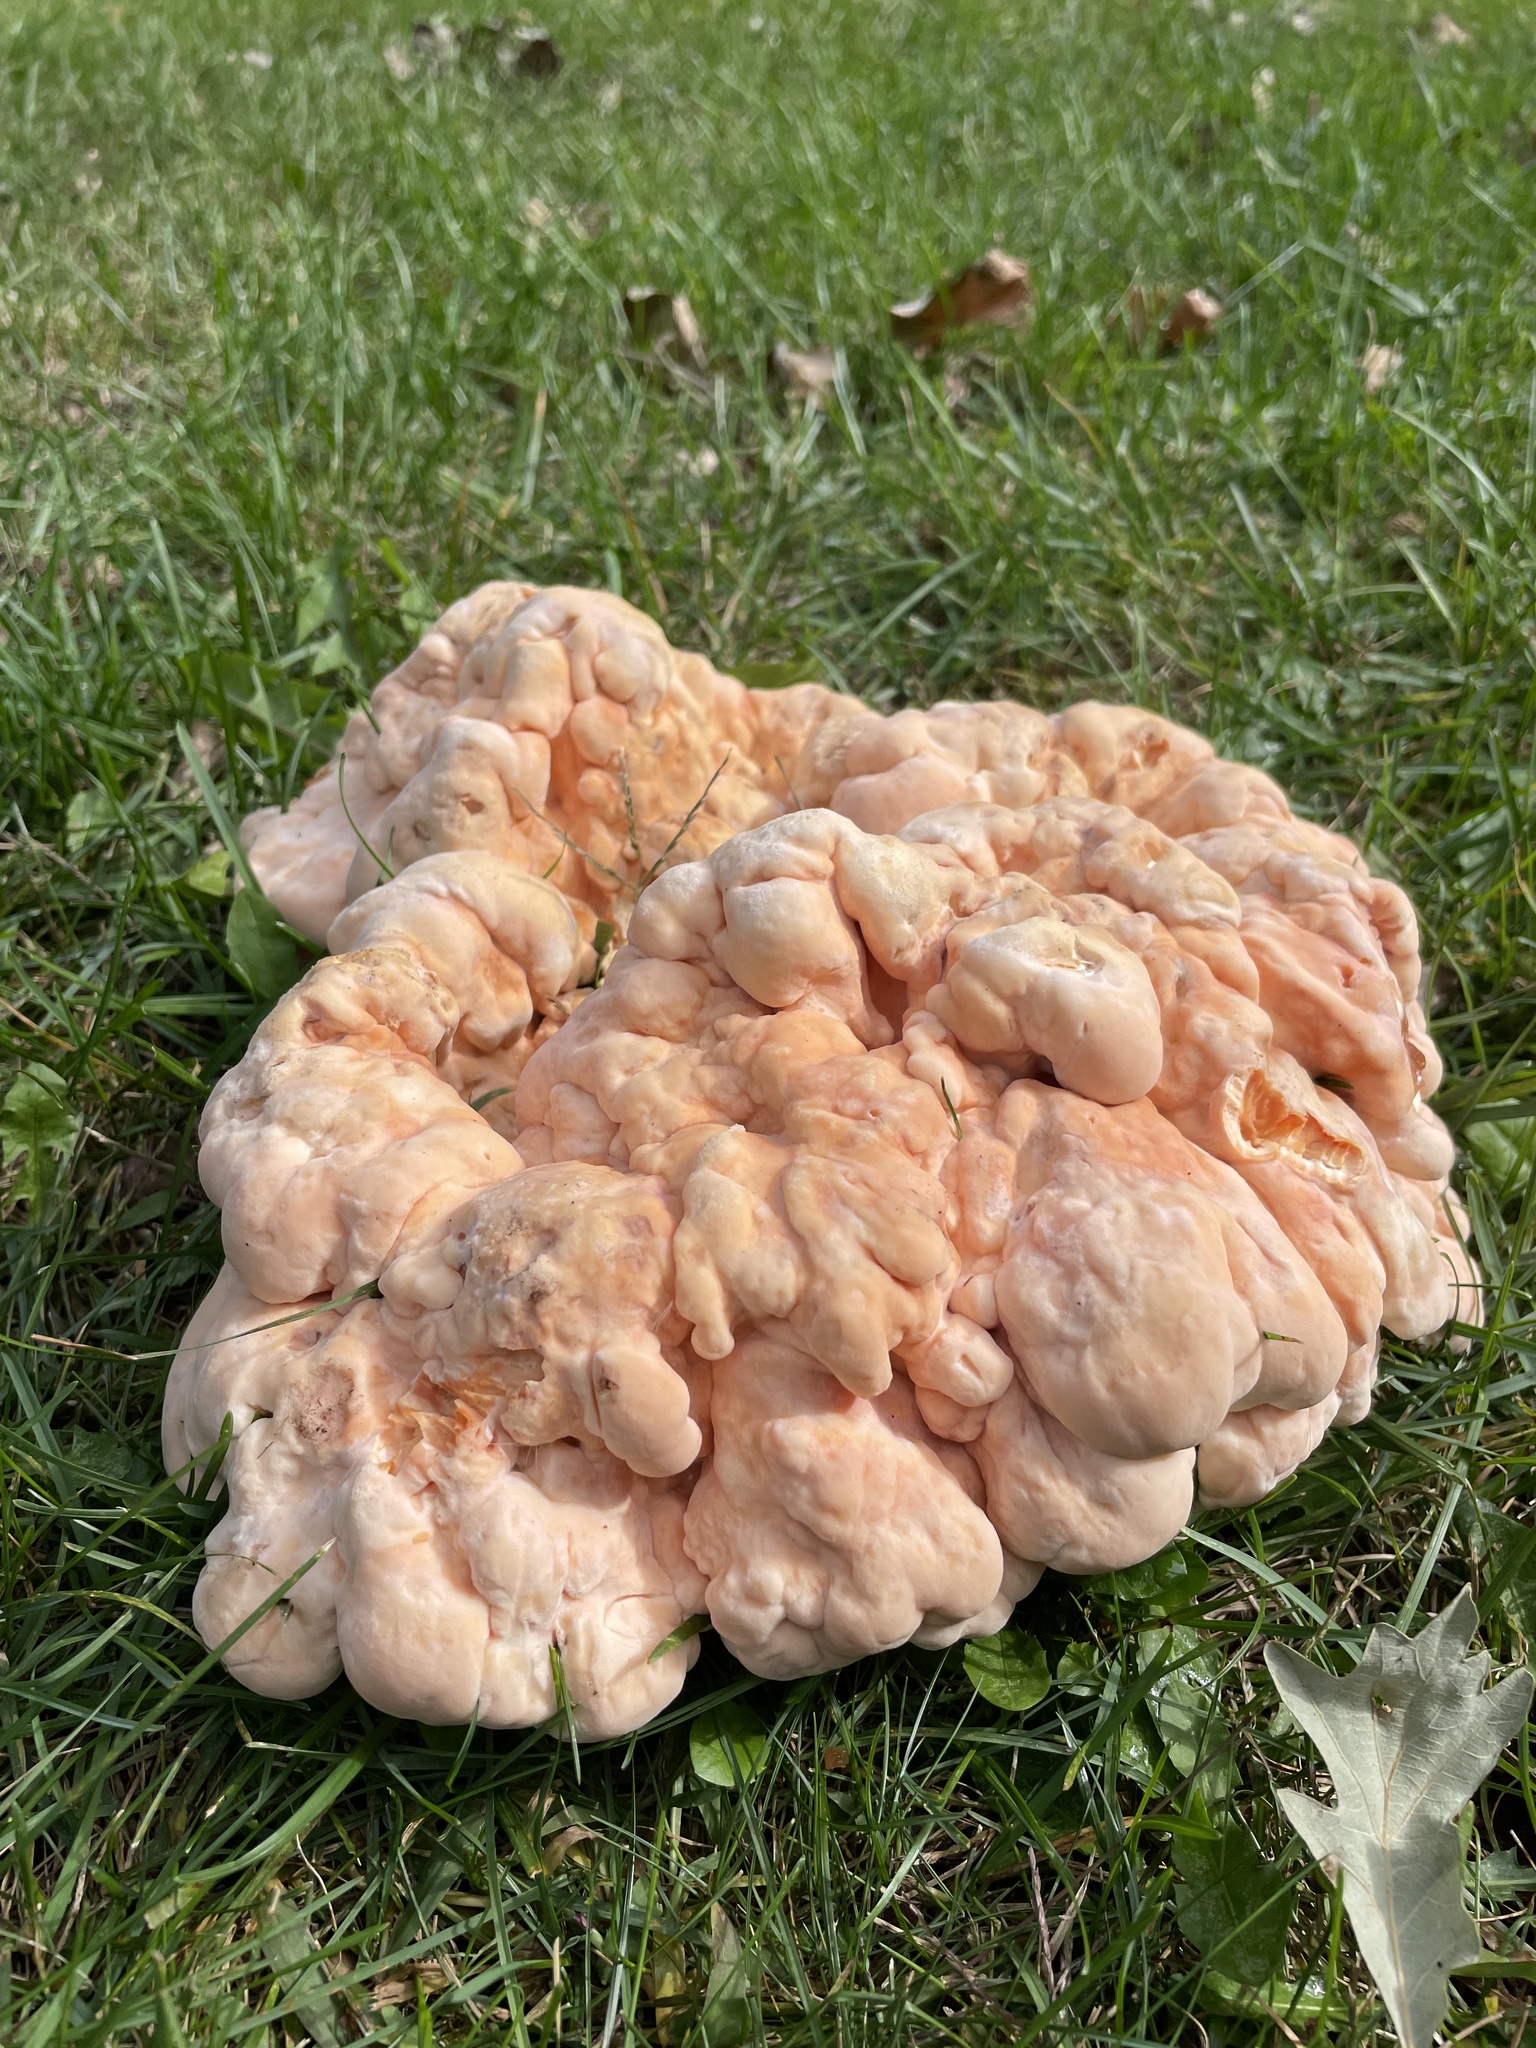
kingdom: Fungi
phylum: Basidiomycota
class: Agaricomycetes
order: Polyporales
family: Laetiporaceae
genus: Laetiporus
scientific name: Laetiporus sulphureus
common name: Chicken of the woods
